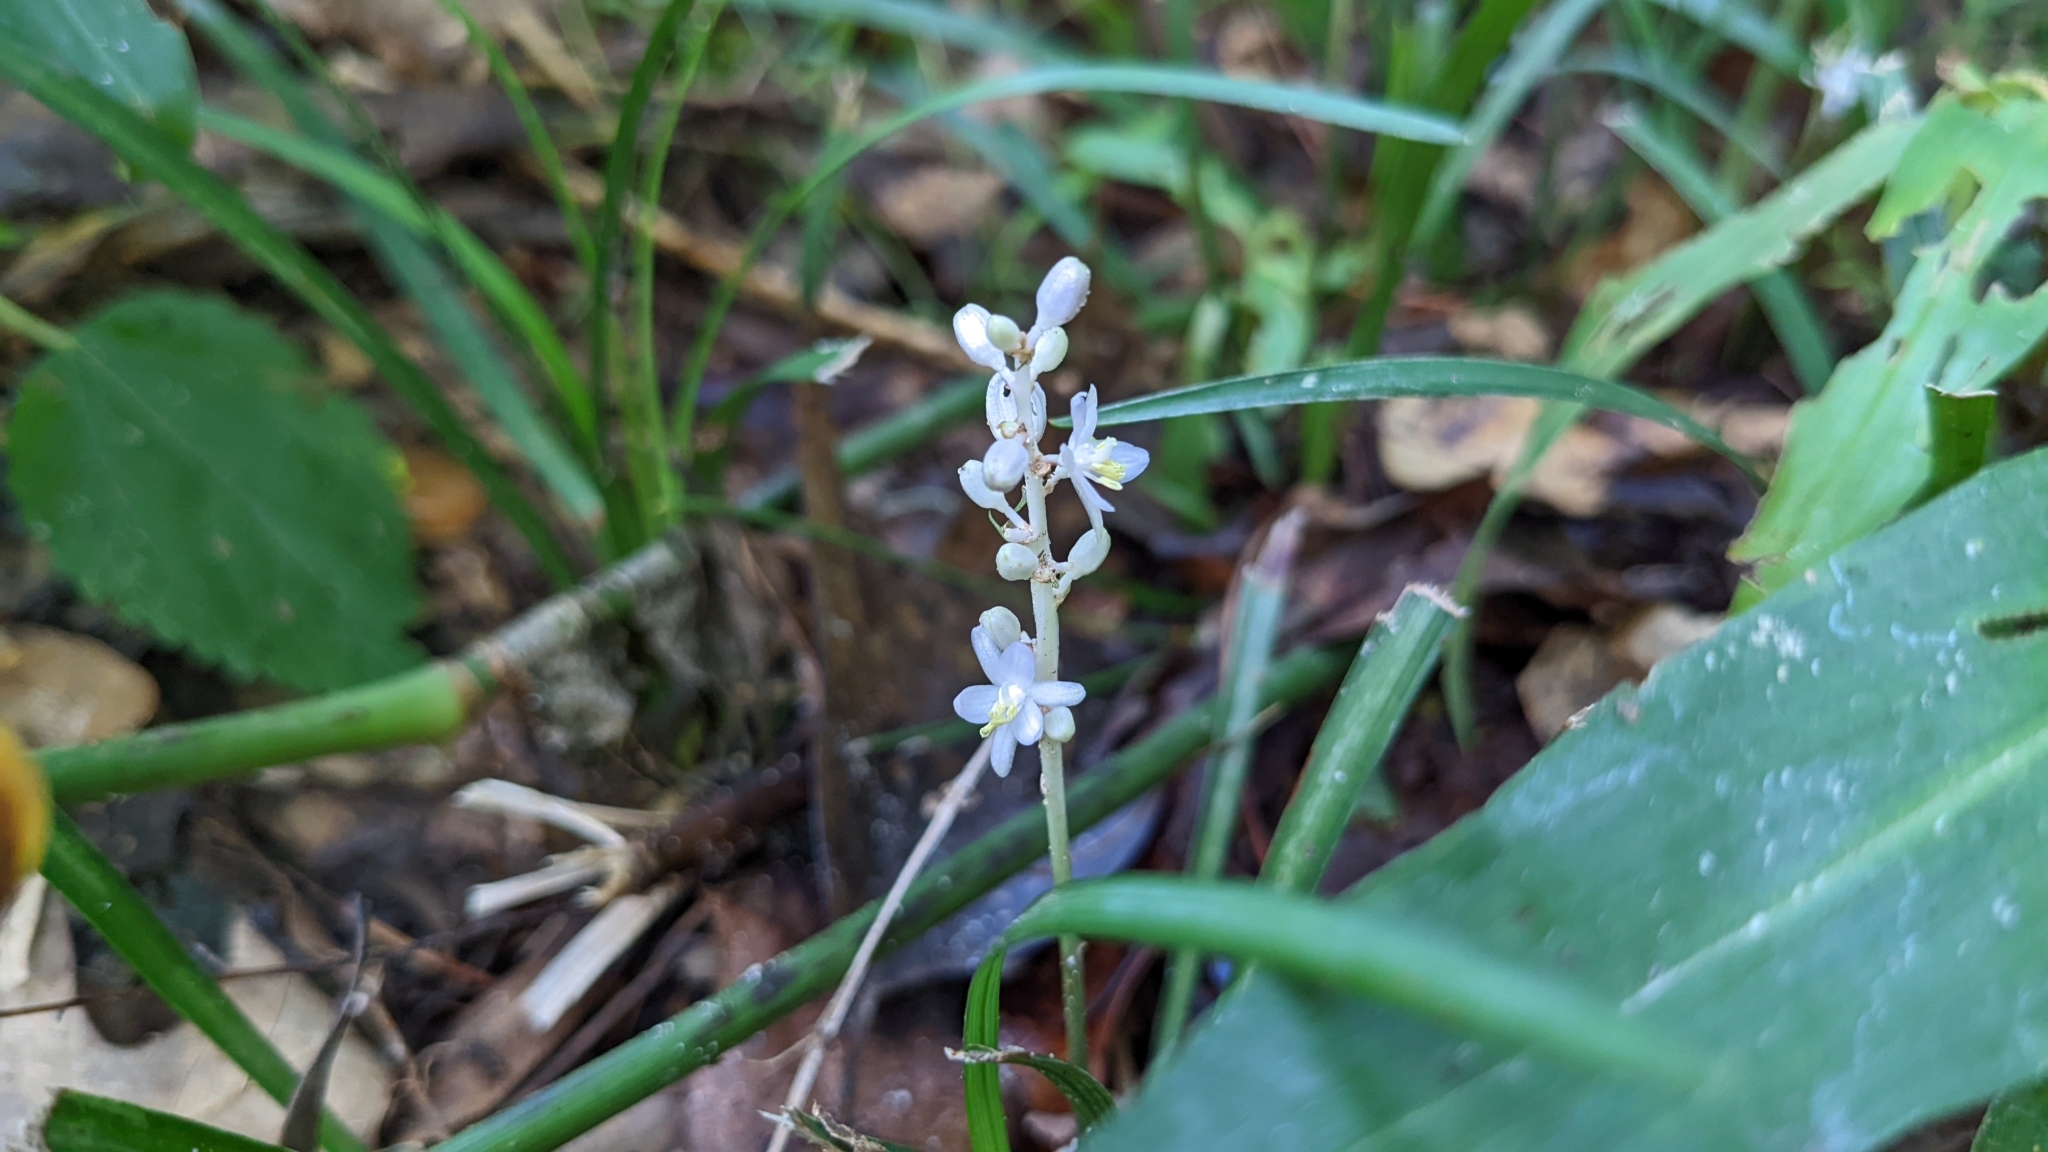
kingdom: Plantae
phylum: Tracheophyta
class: Liliopsida
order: Asparagales
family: Asparagaceae
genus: Liriope
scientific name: Liriope muscari
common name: Big blue lilyturf
